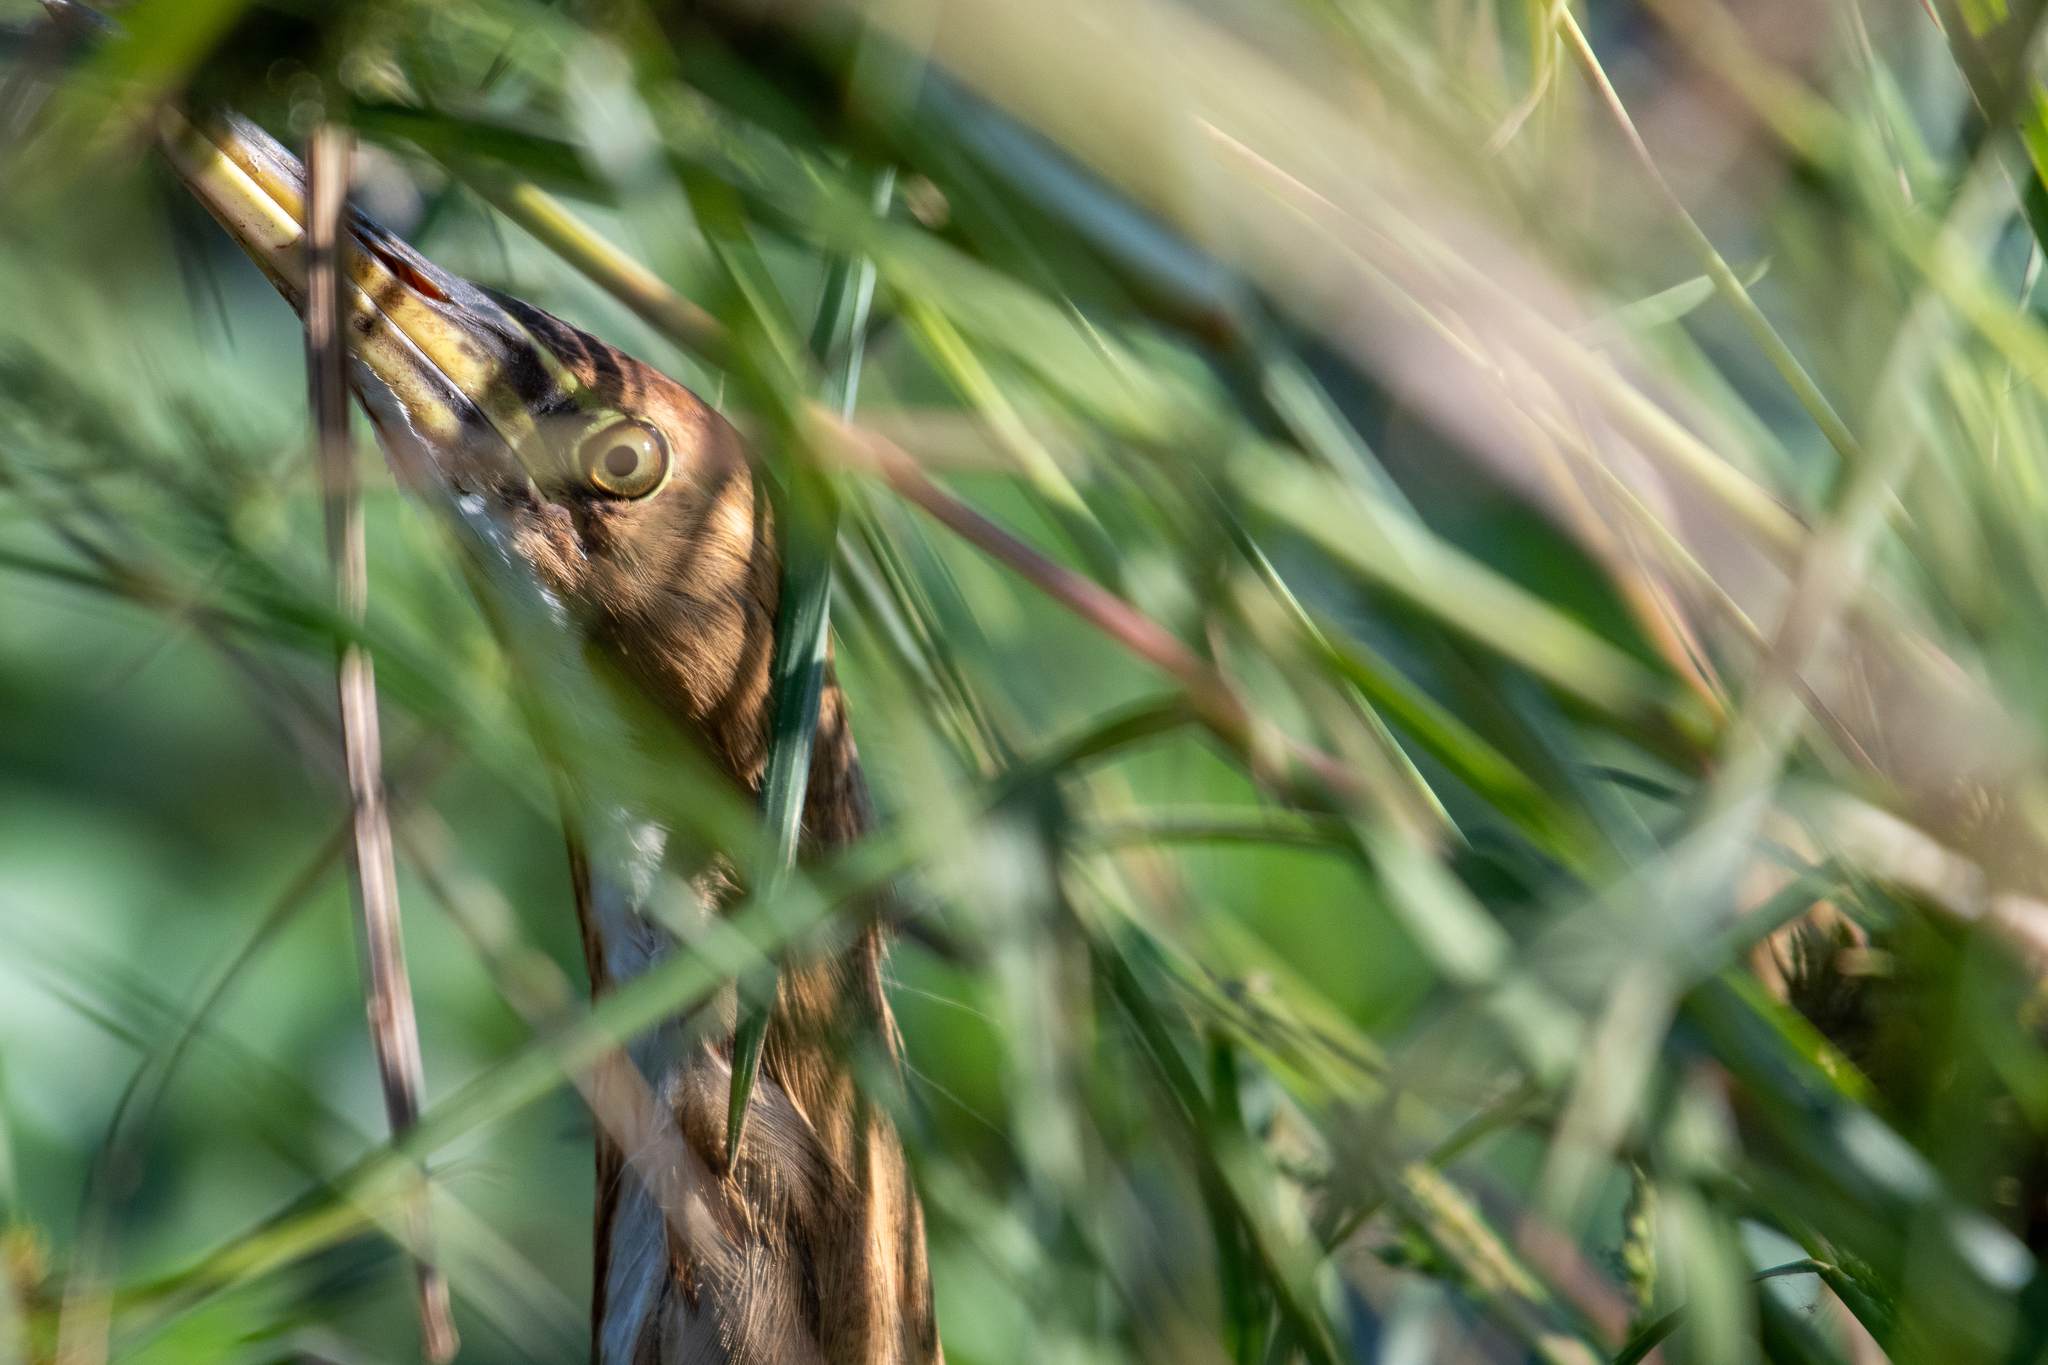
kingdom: Animalia
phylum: Chordata
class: Aves
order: Pelecaniformes
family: Ardeidae
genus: Botaurus
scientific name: Botaurus lentiginosus
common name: American bittern
